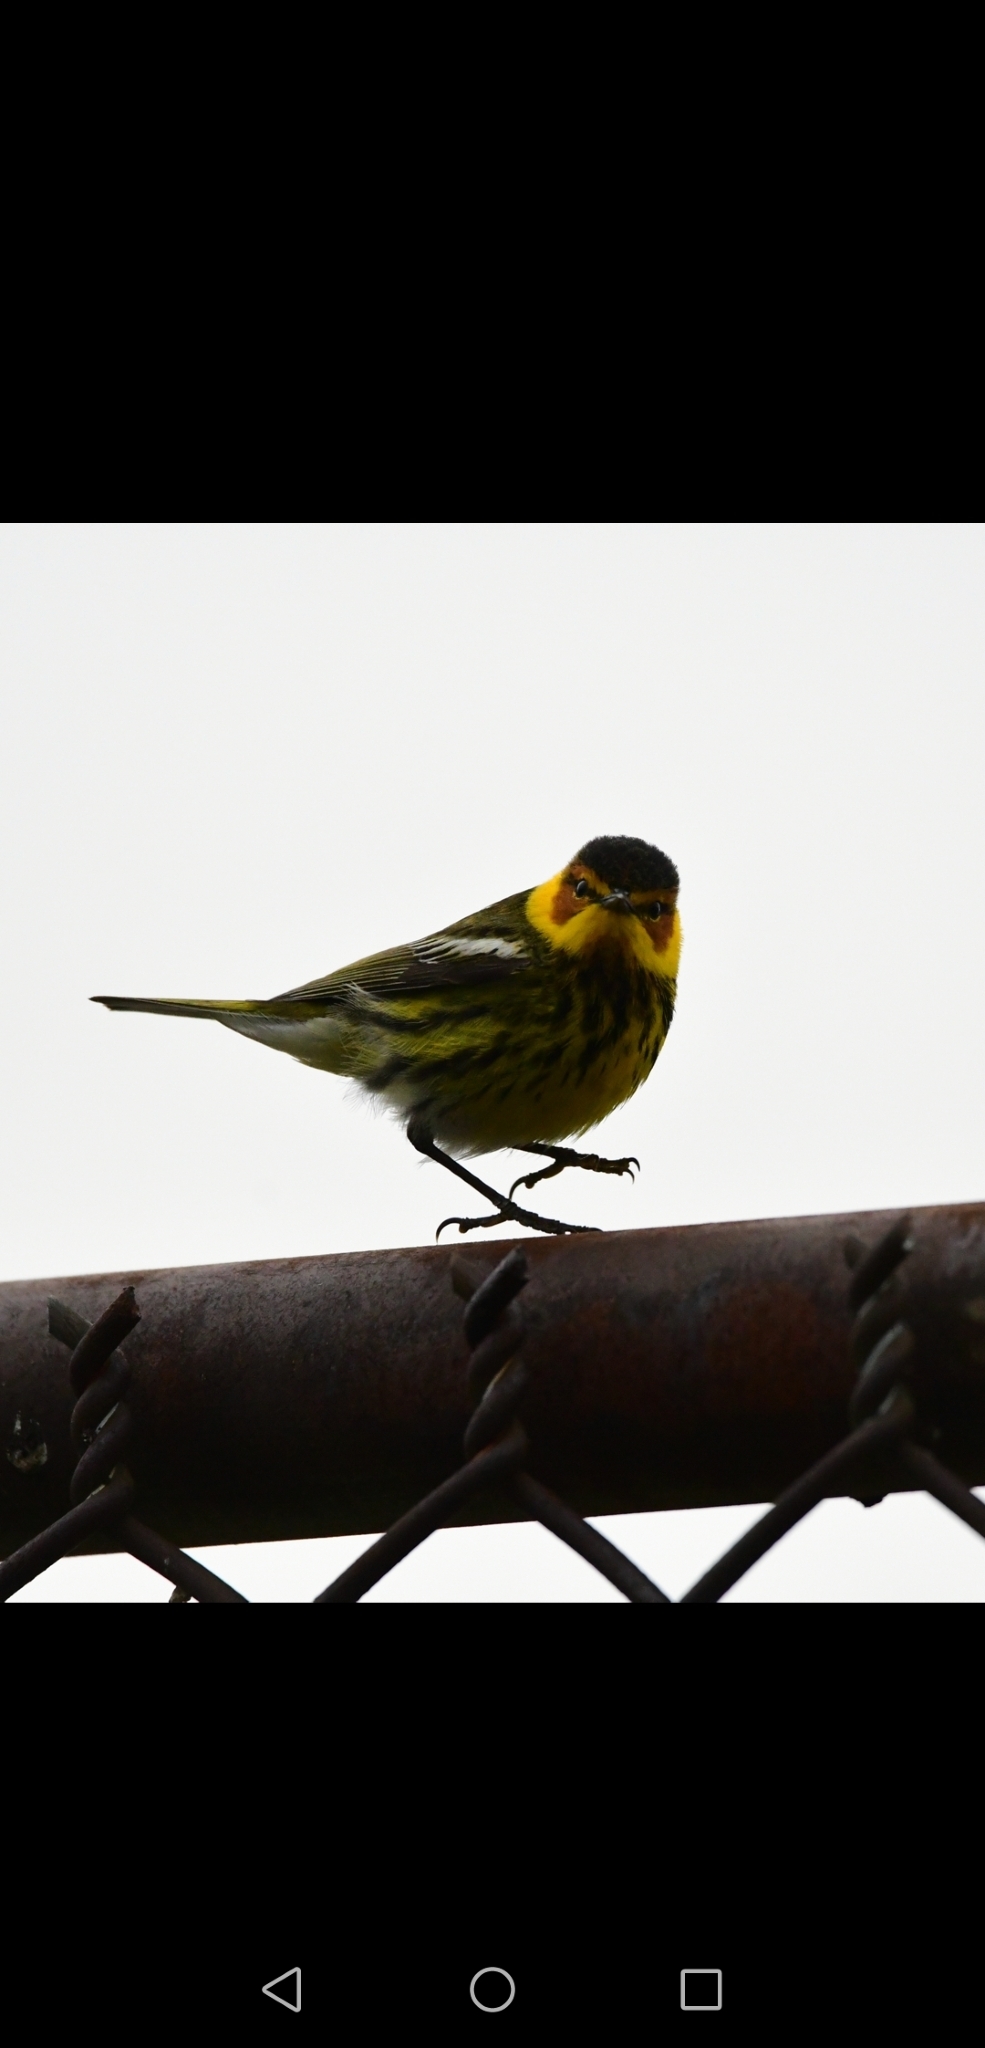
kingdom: Animalia
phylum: Chordata
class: Aves
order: Passeriformes
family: Parulidae
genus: Setophaga
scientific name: Setophaga tigrina
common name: Cape may warbler
